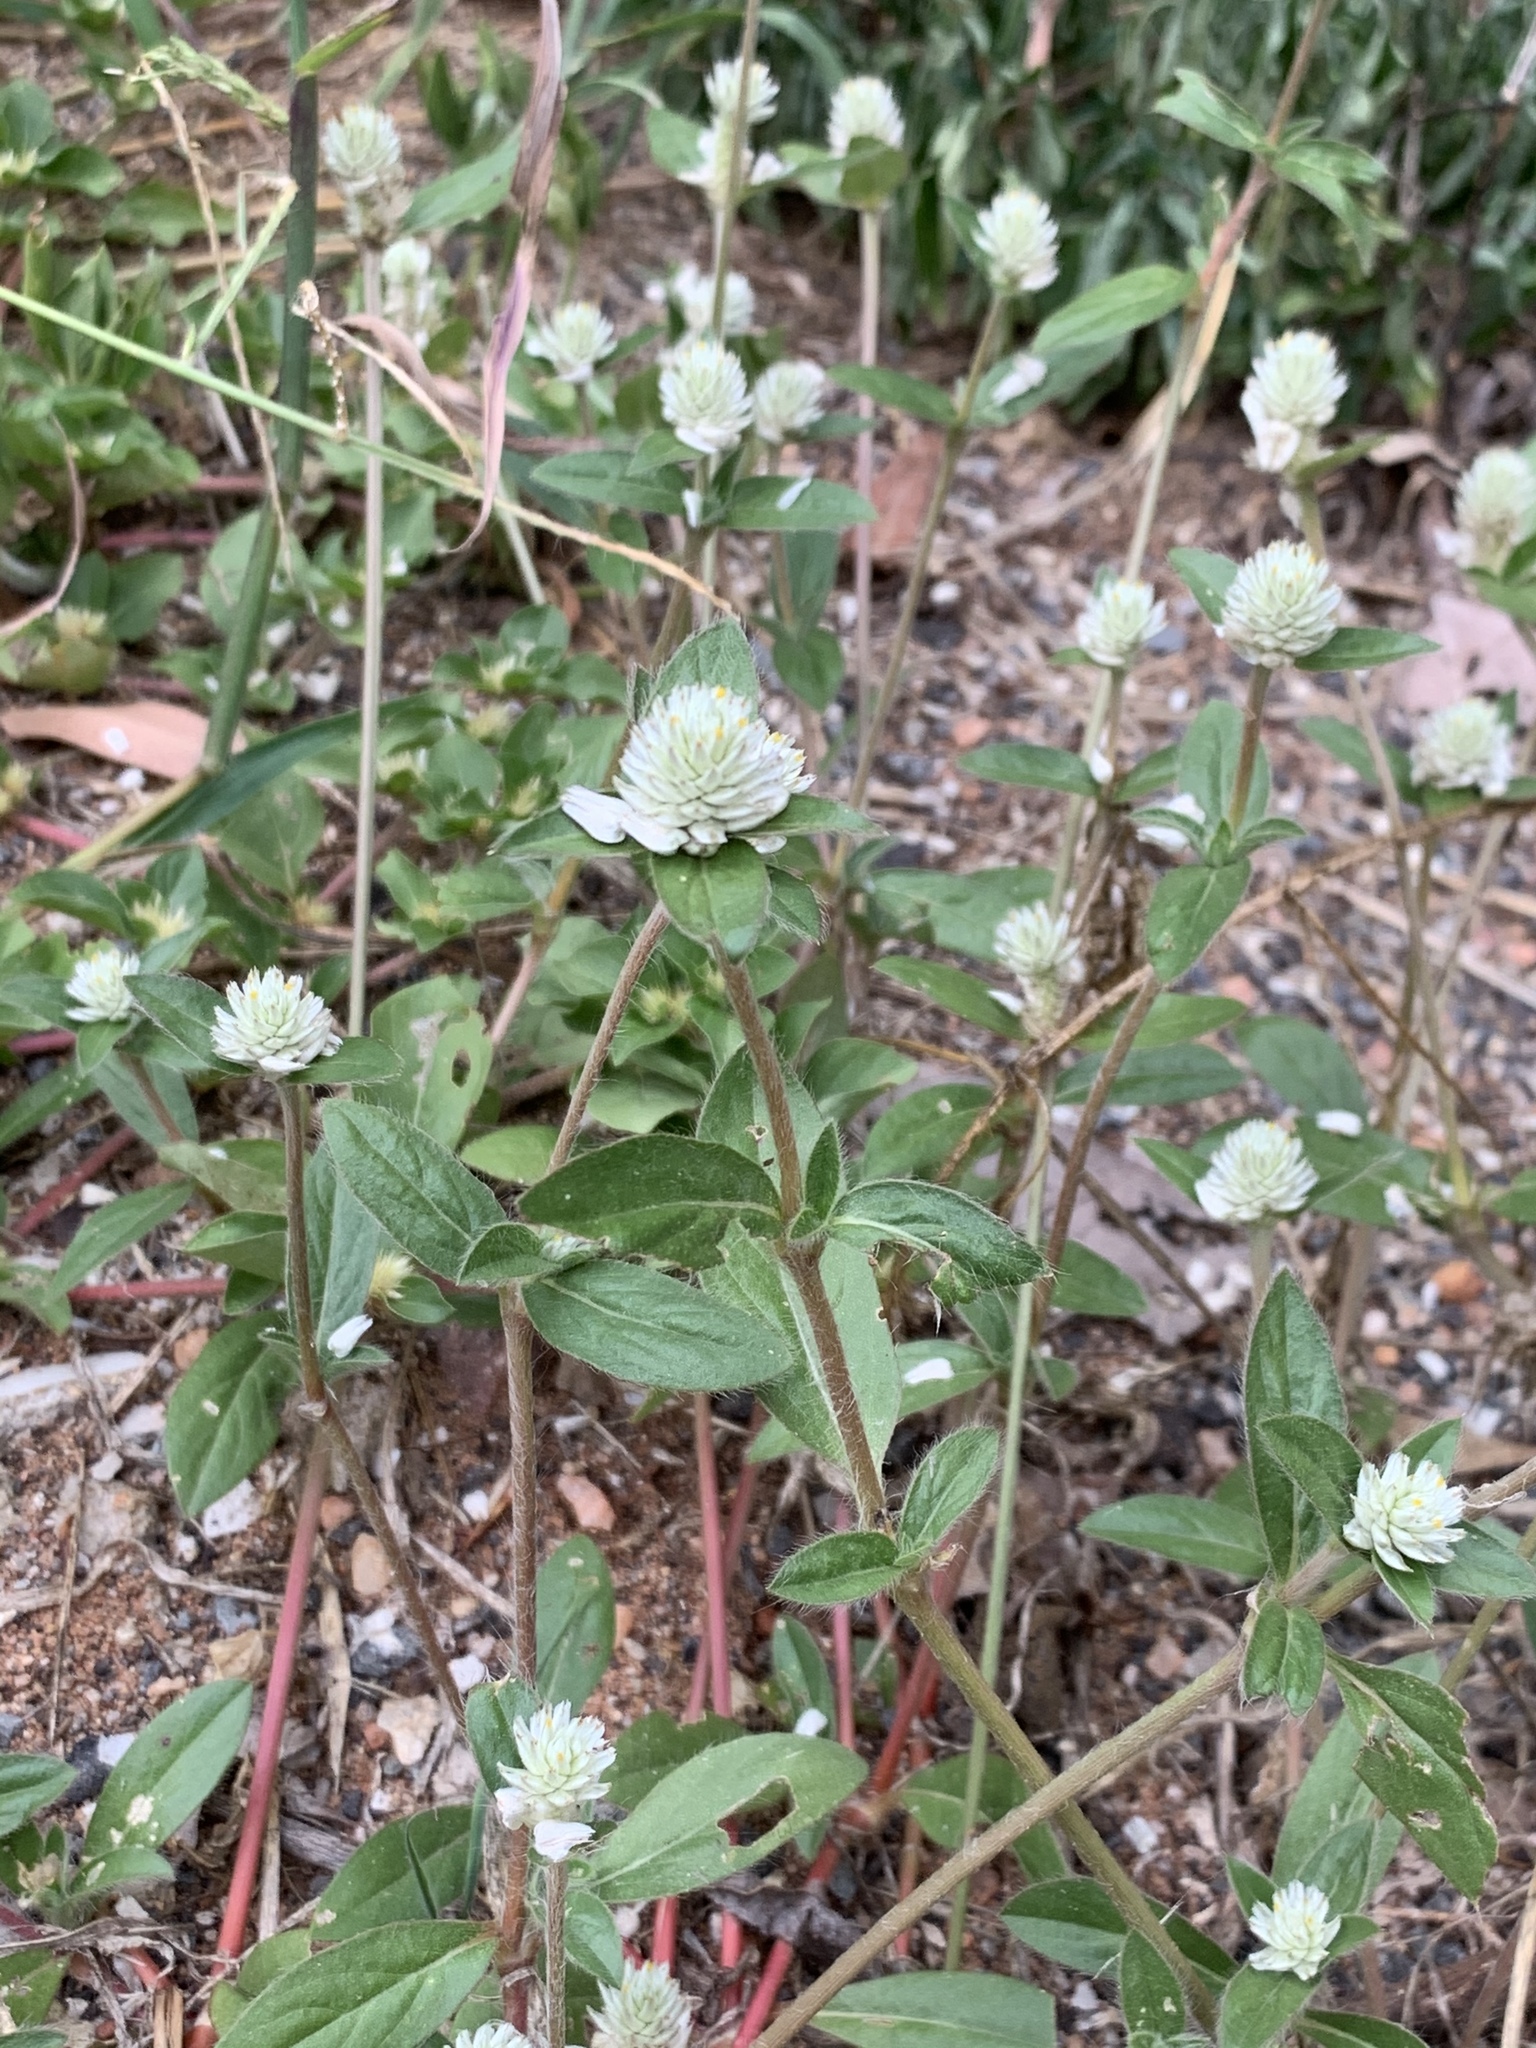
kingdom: Plantae
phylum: Tracheophyta
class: Magnoliopsida
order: Caryophyllales
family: Amaranthaceae
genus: Gomphrena
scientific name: Gomphrena celosioides
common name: Gomphrena-weed
